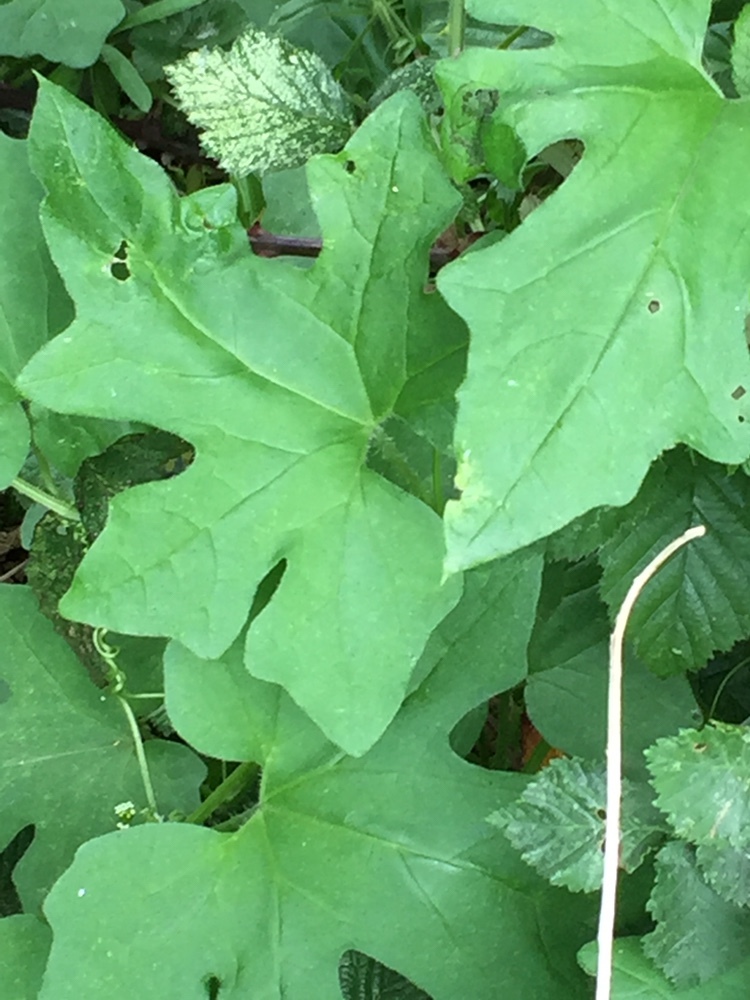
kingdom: Plantae
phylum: Tracheophyta
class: Magnoliopsida
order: Cucurbitales
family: Cucurbitaceae
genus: Bryonia
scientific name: Bryonia cretica
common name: Cretan bryony
